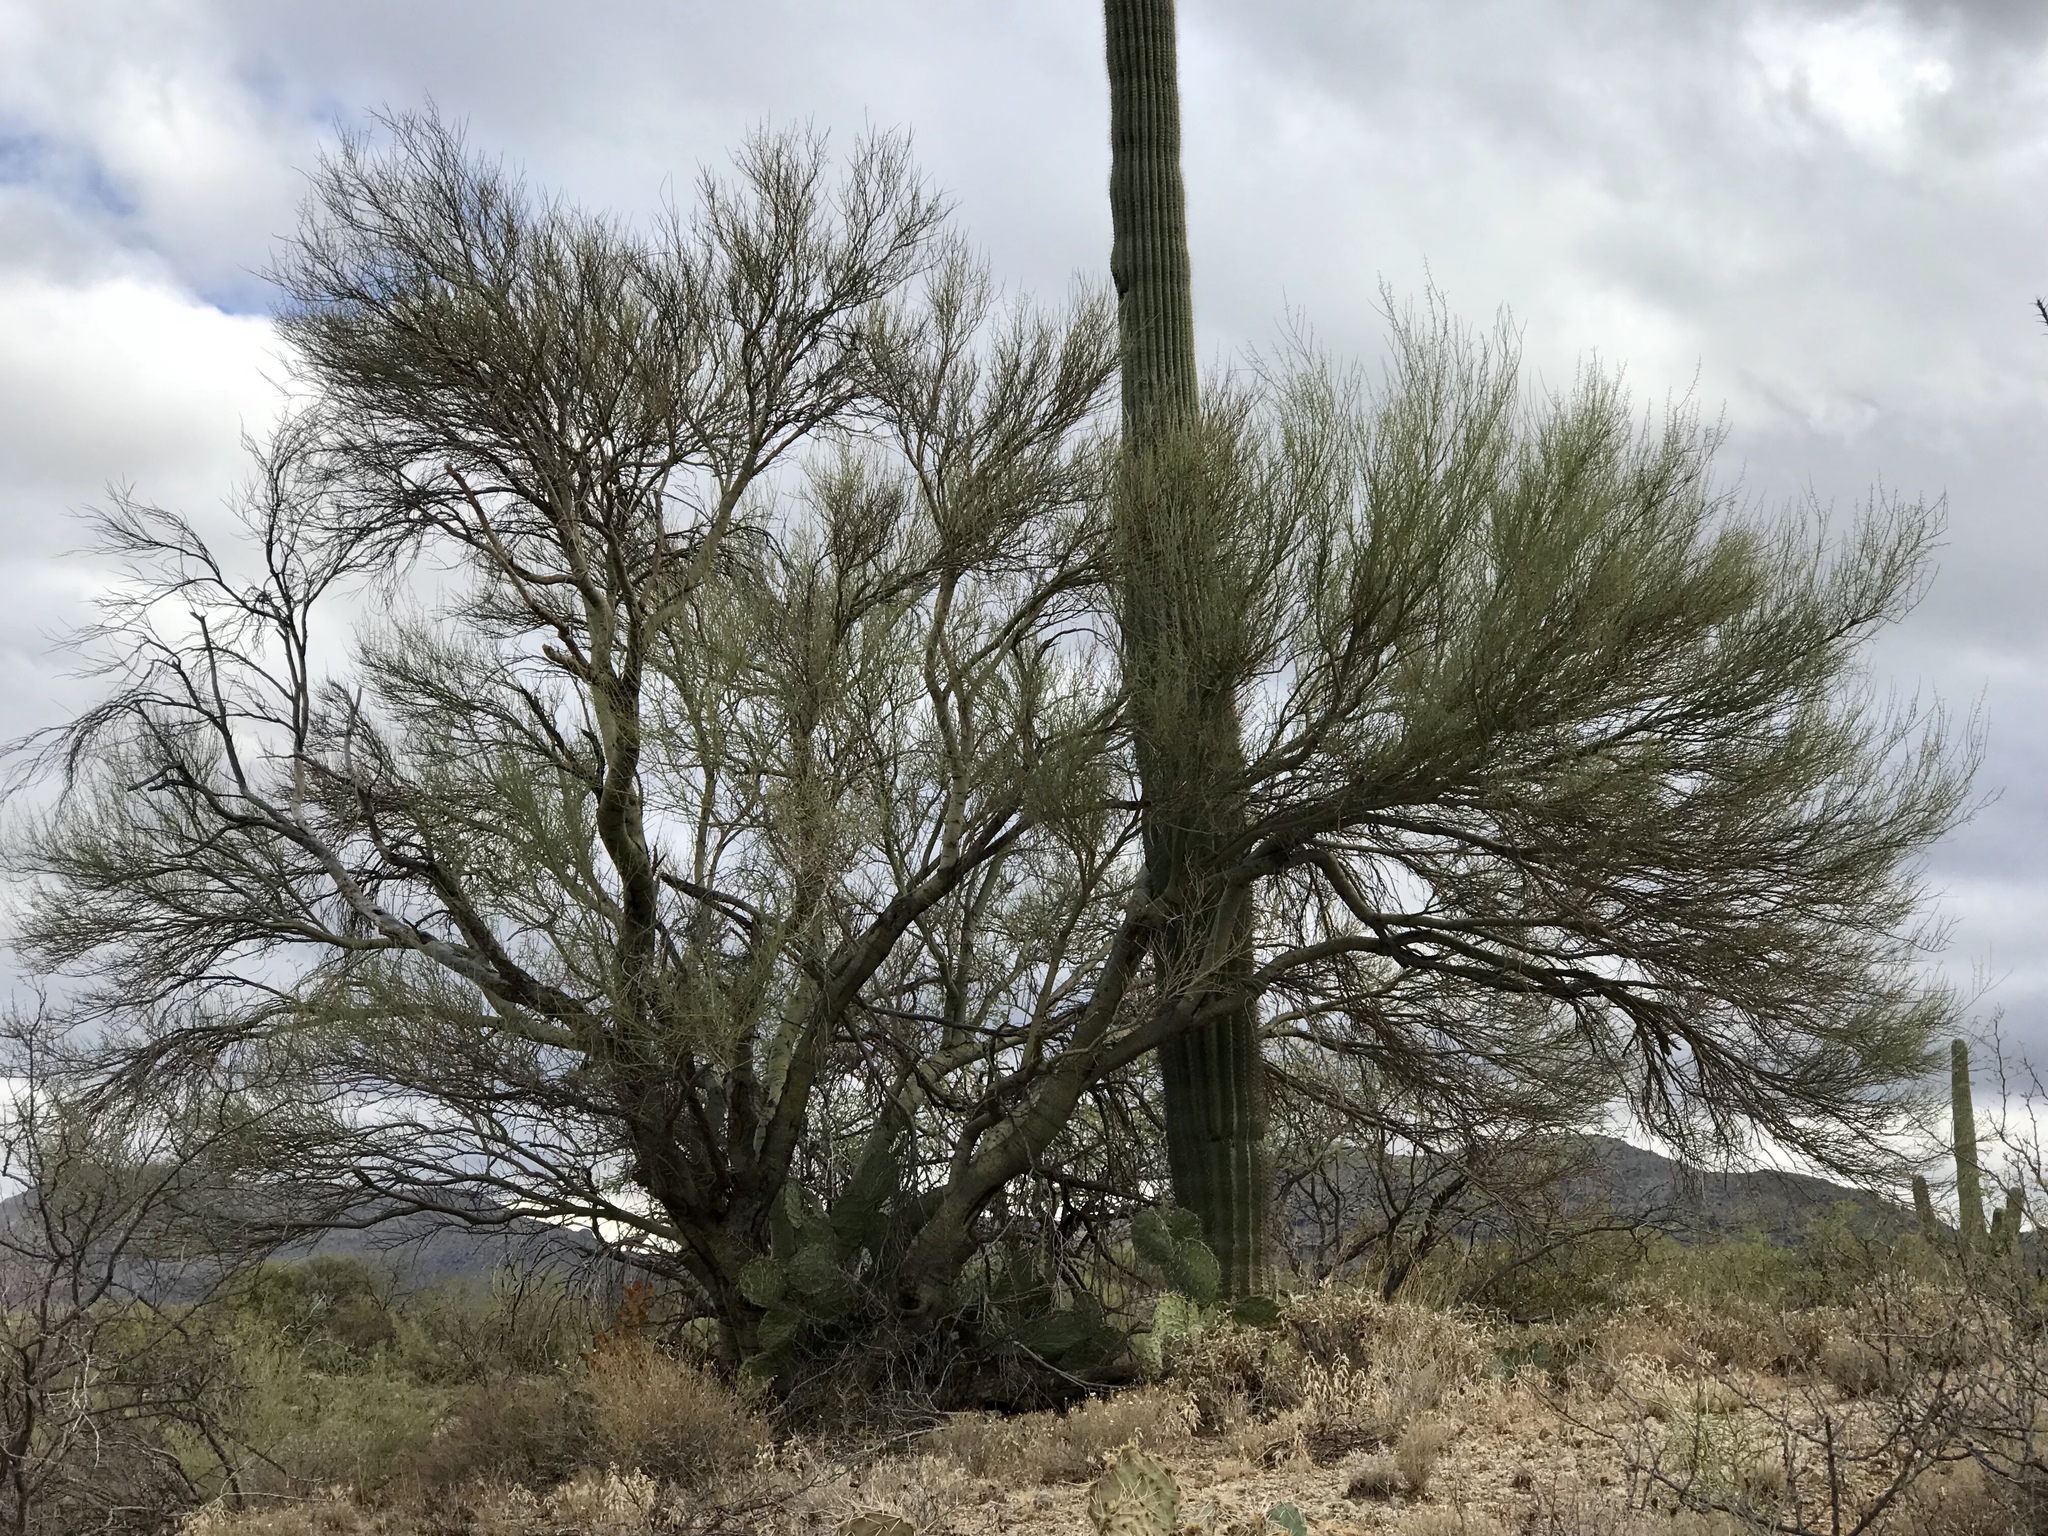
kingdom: Plantae
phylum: Tracheophyta
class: Magnoliopsida
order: Fabales
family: Fabaceae
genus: Parkinsonia
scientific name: Parkinsonia microphylla
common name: Yellow paloverde
